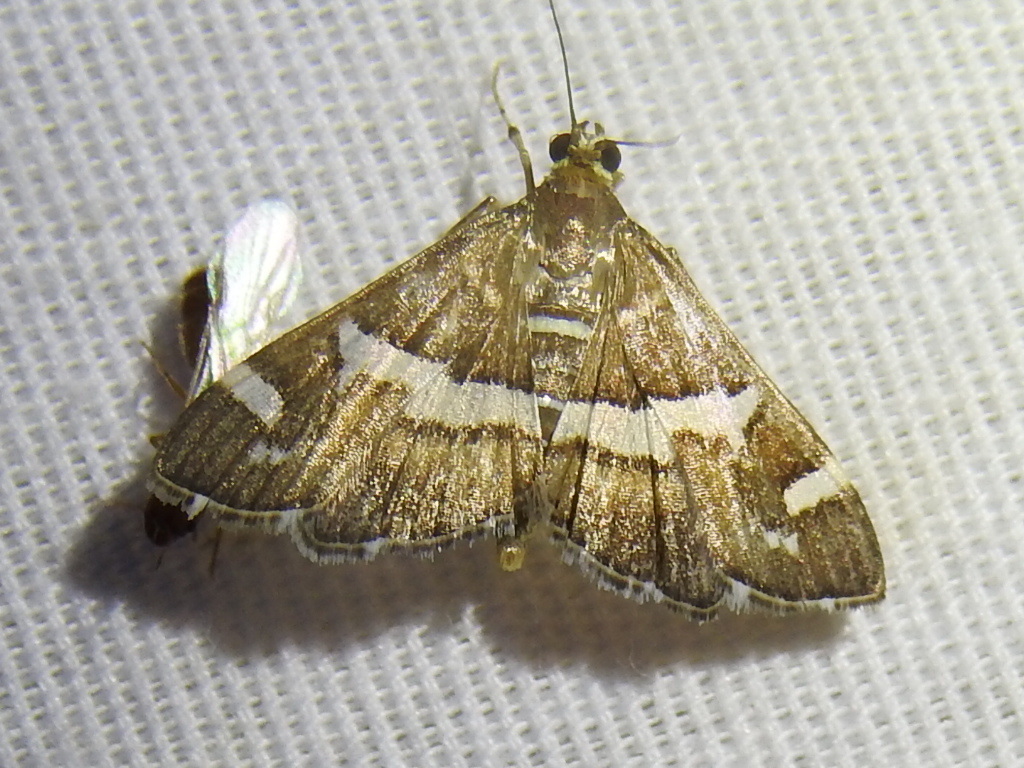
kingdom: Animalia
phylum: Arthropoda
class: Insecta
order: Lepidoptera
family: Crambidae
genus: Spoladea
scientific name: Spoladea recurvalis
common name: Beet webworm moth
